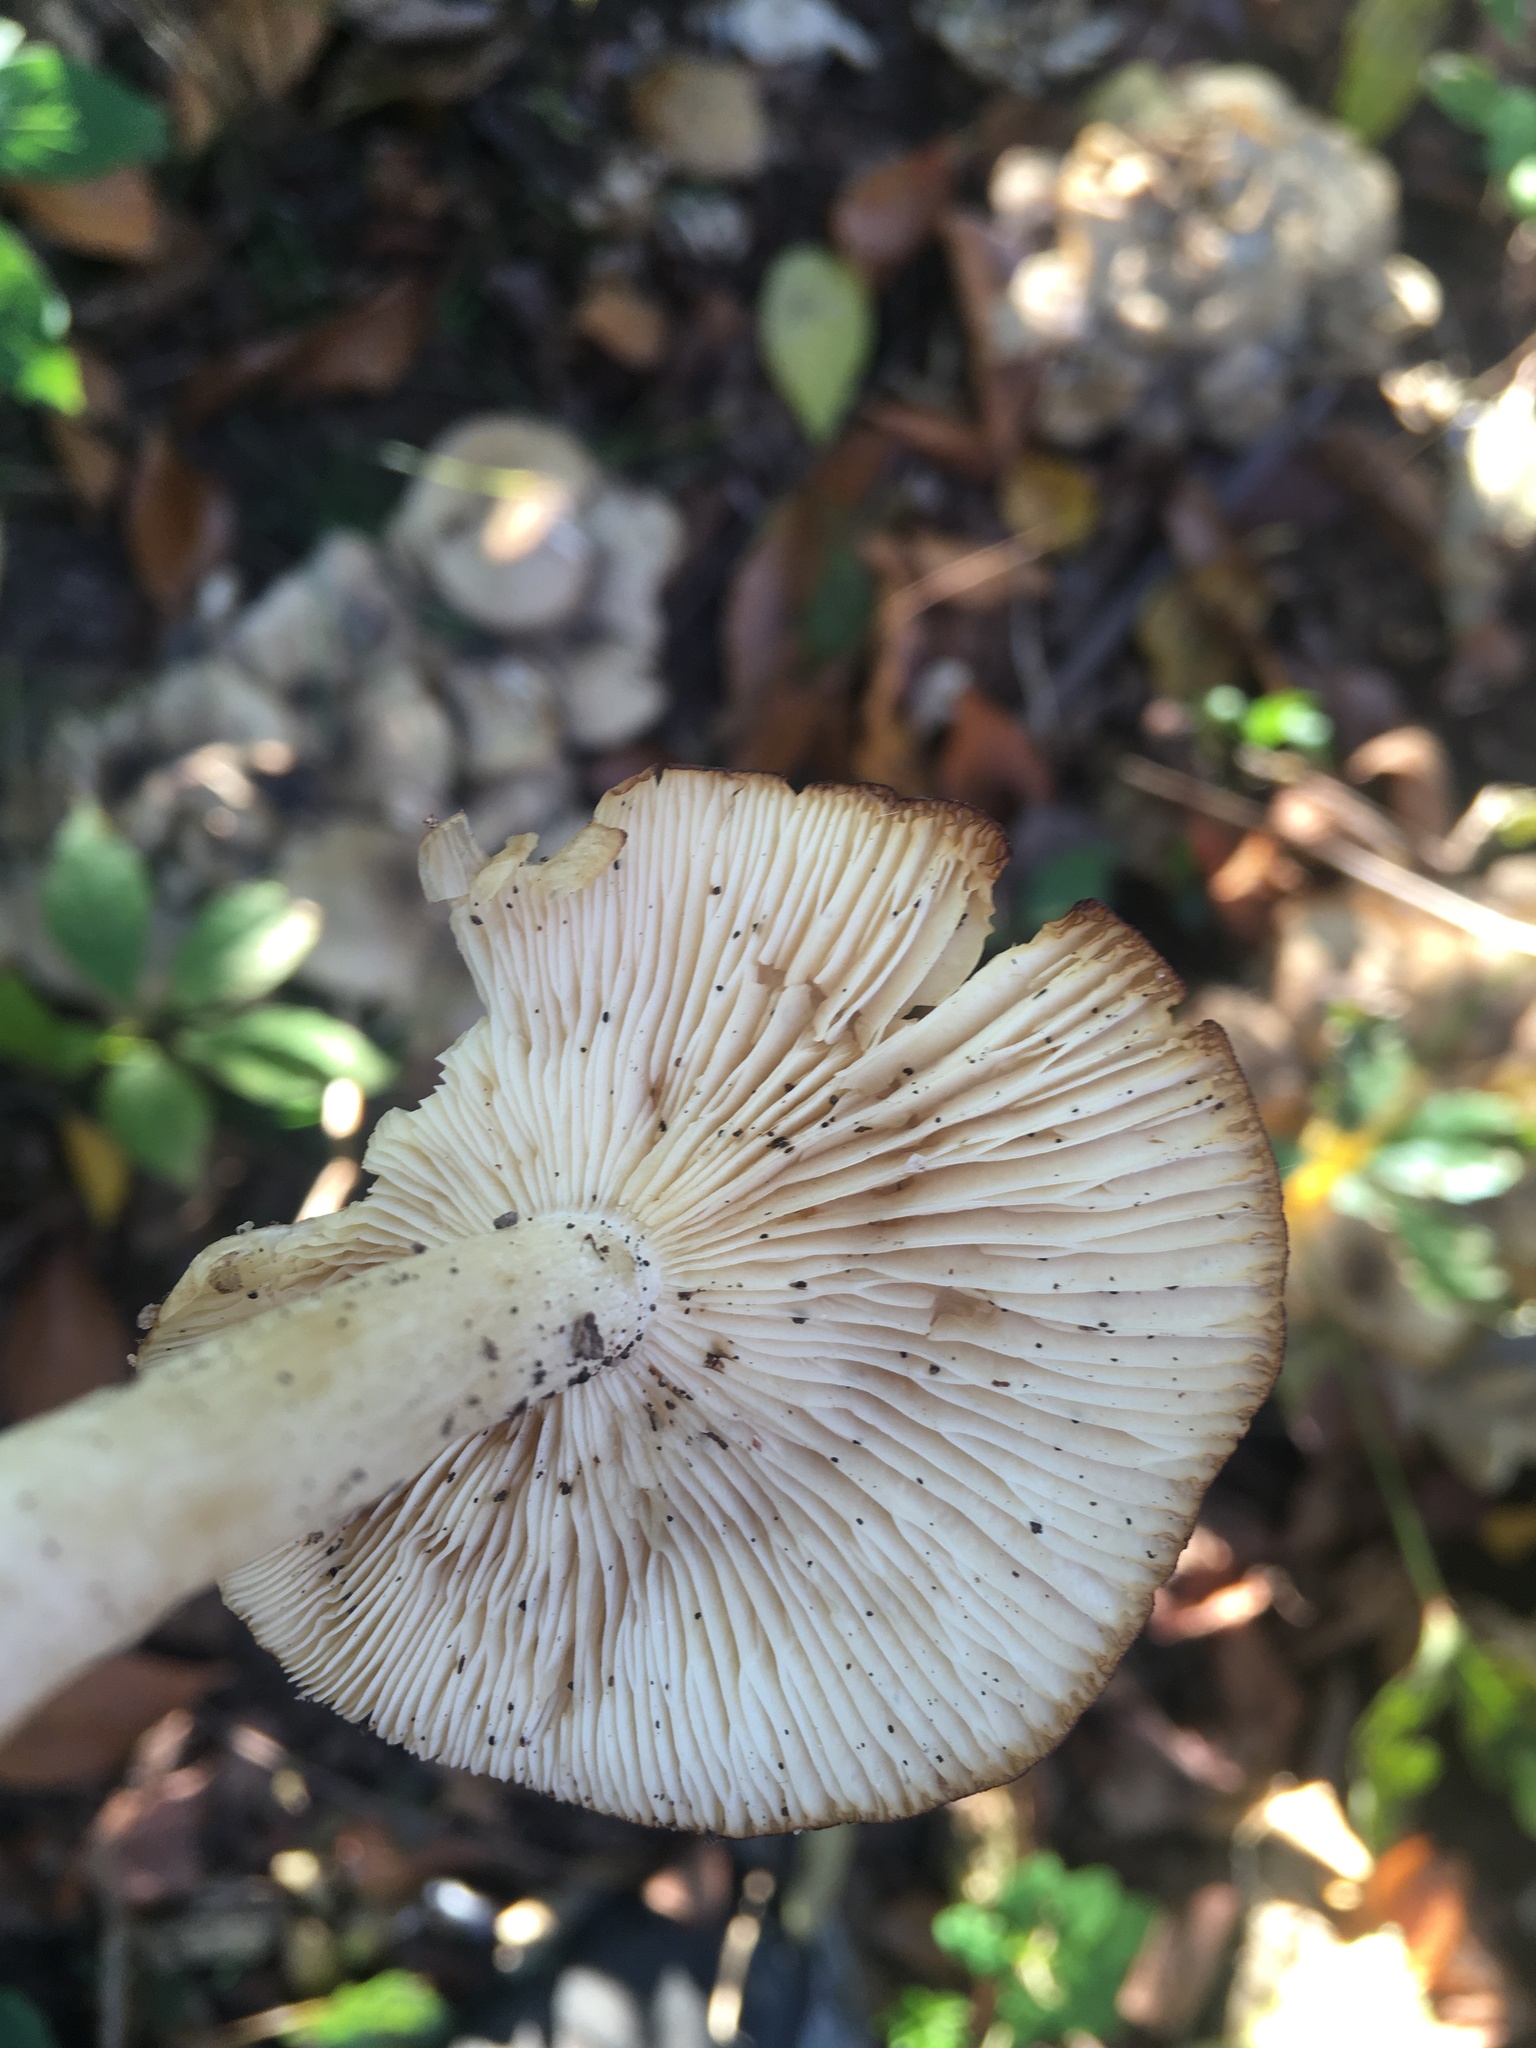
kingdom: Fungi
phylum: Basidiomycota
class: Agaricomycetes
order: Agaricales
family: Tricholomataceae
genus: Clitocybe
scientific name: Clitocybe inflatipes
